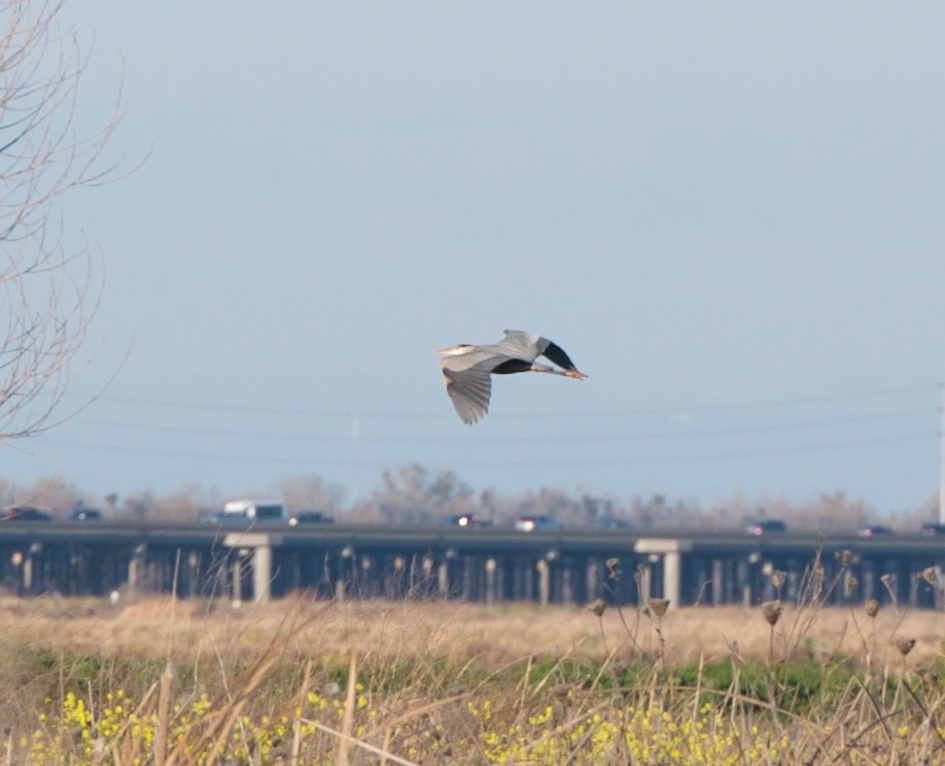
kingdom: Animalia
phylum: Chordata
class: Aves
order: Pelecaniformes
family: Ardeidae
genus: Ardea
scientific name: Ardea herodias
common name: Great blue heron
